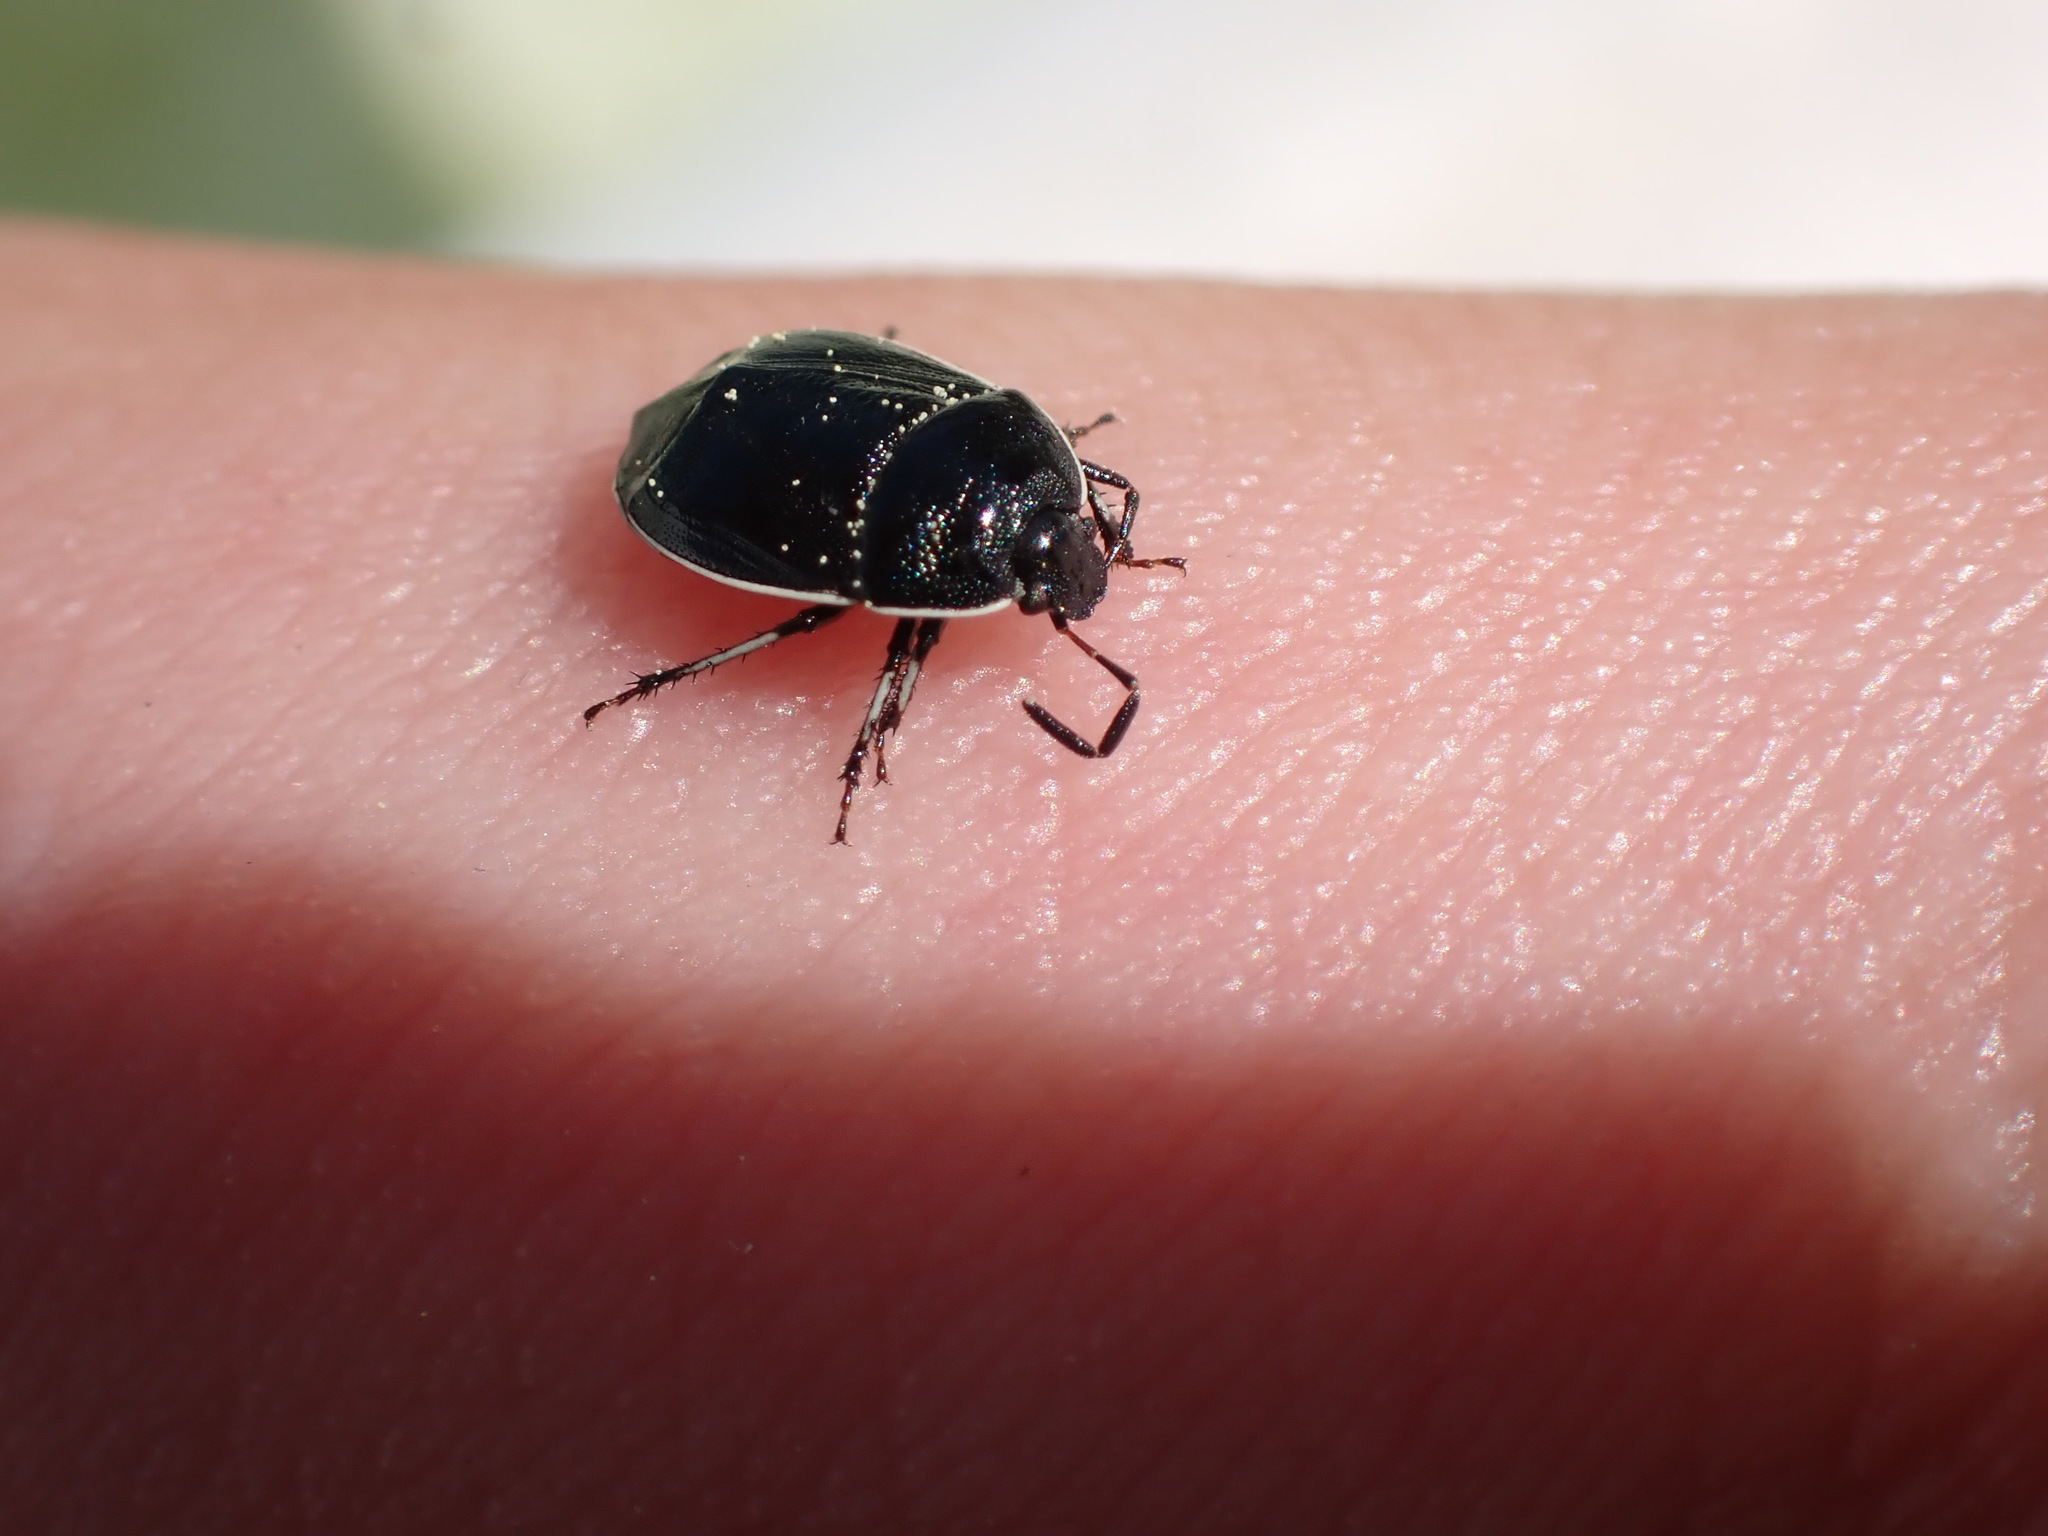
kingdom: Animalia
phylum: Arthropoda
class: Insecta
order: Hemiptera
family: Cydnidae
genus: Sehirus
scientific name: Sehirus cinctus
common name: White-margined burrower bug
